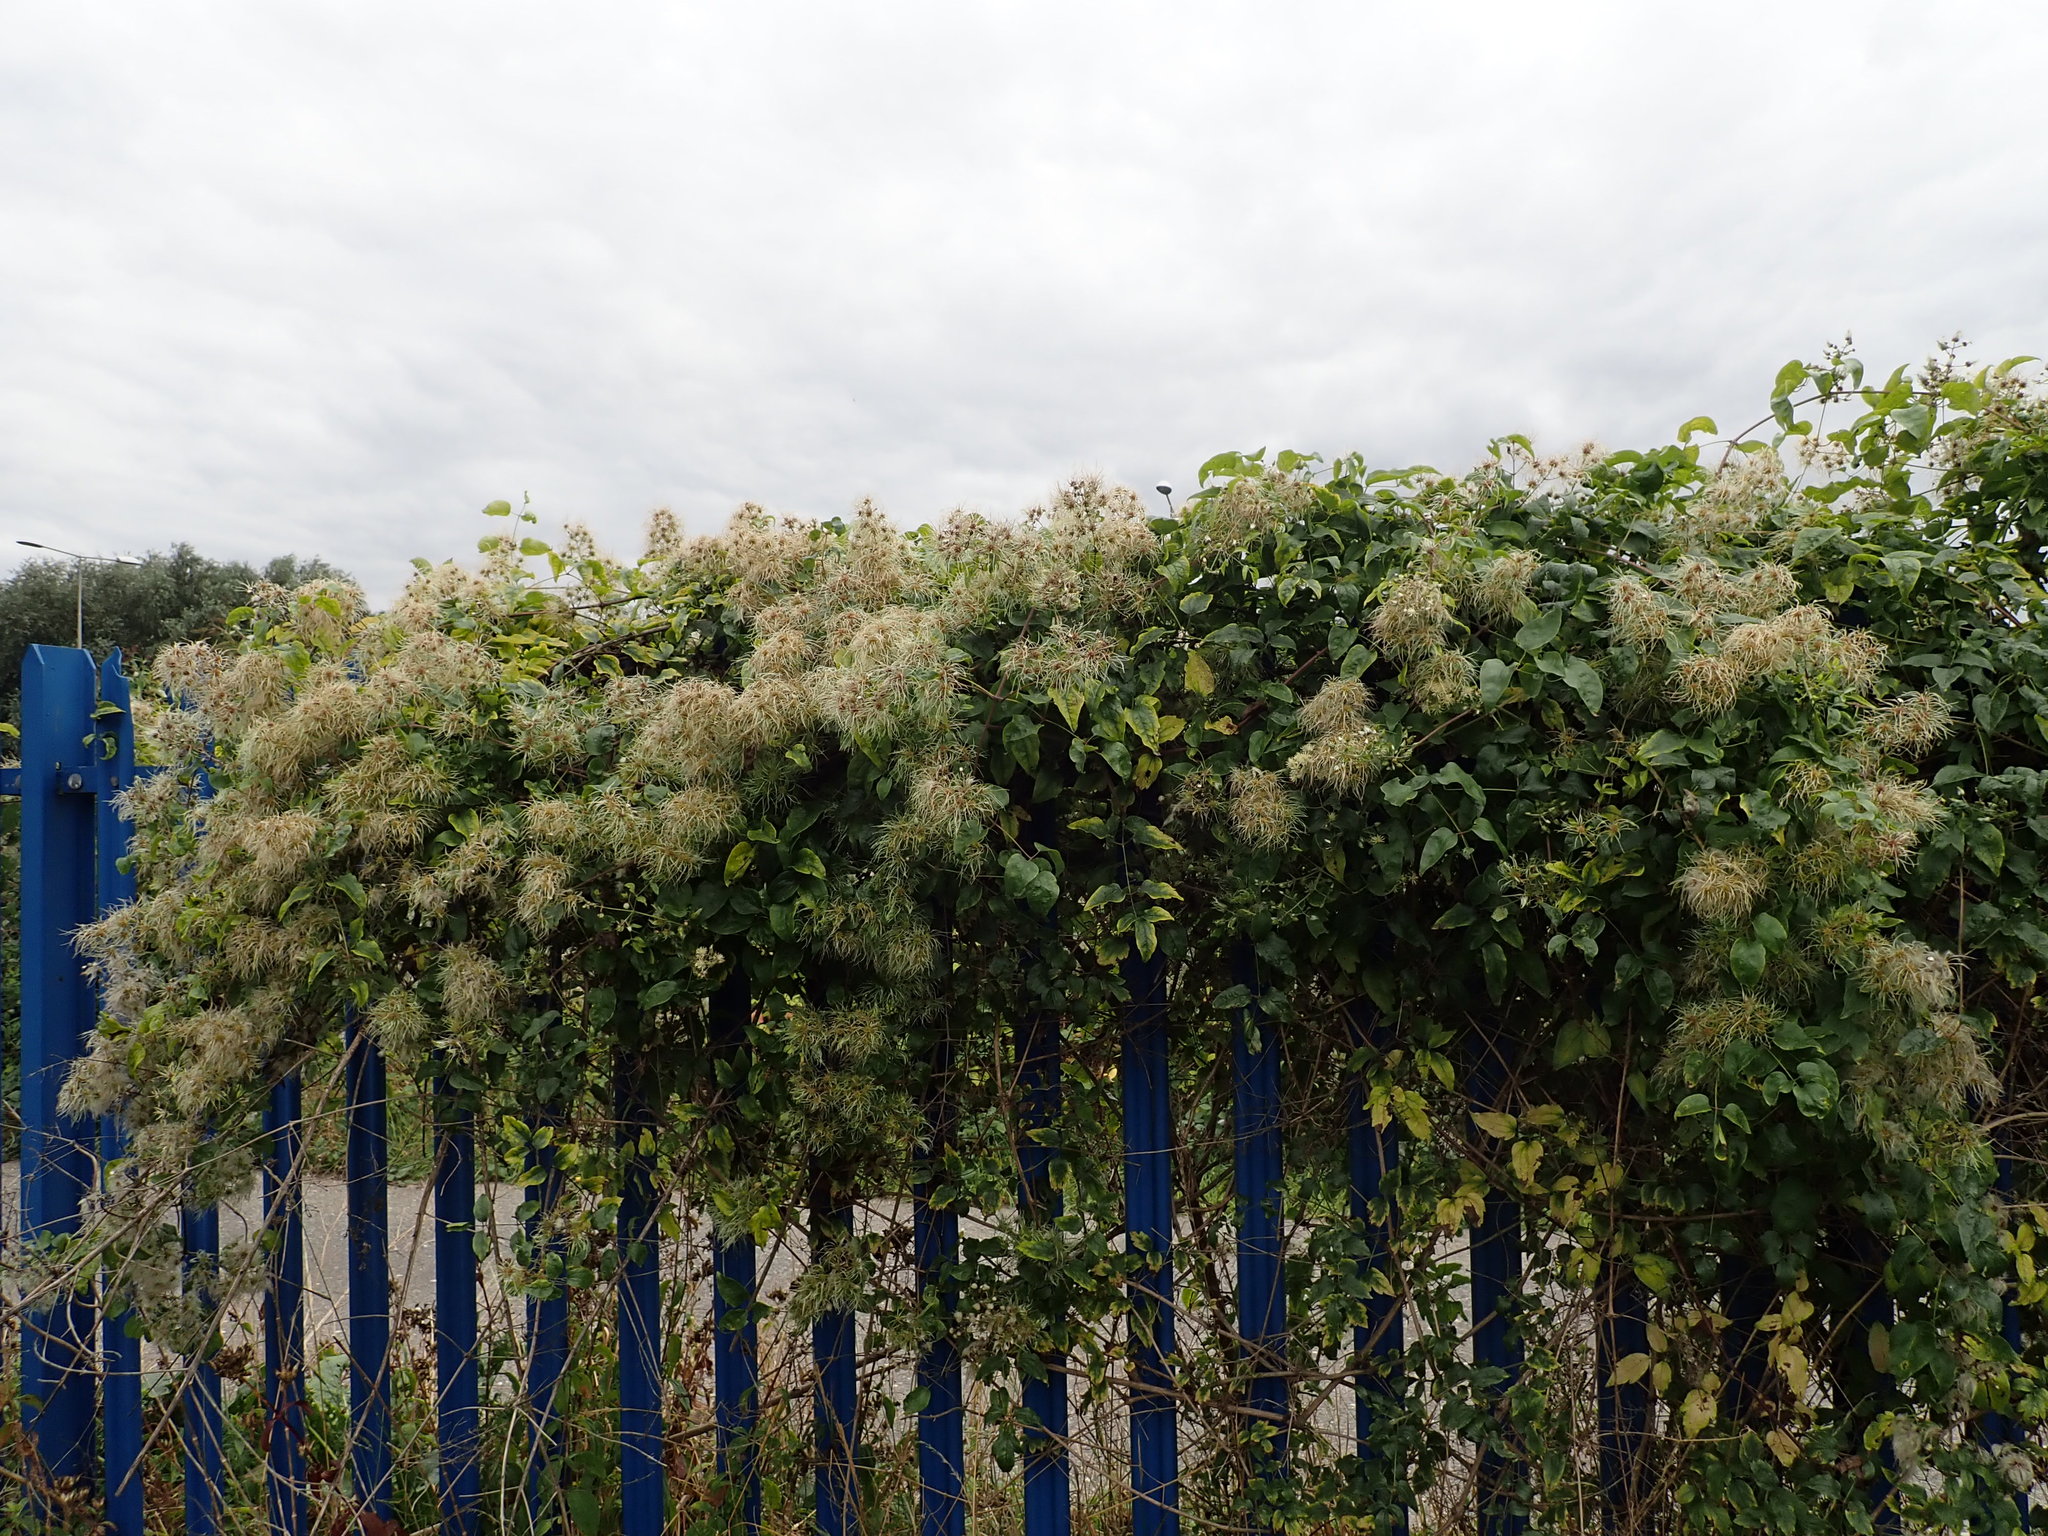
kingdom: Plantae
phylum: Tracheophyta
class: Magnoliopsida
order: Ranunculales
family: Ranunculaceae
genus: Clematis
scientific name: Clematis vitalba
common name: Evergreen clematis
